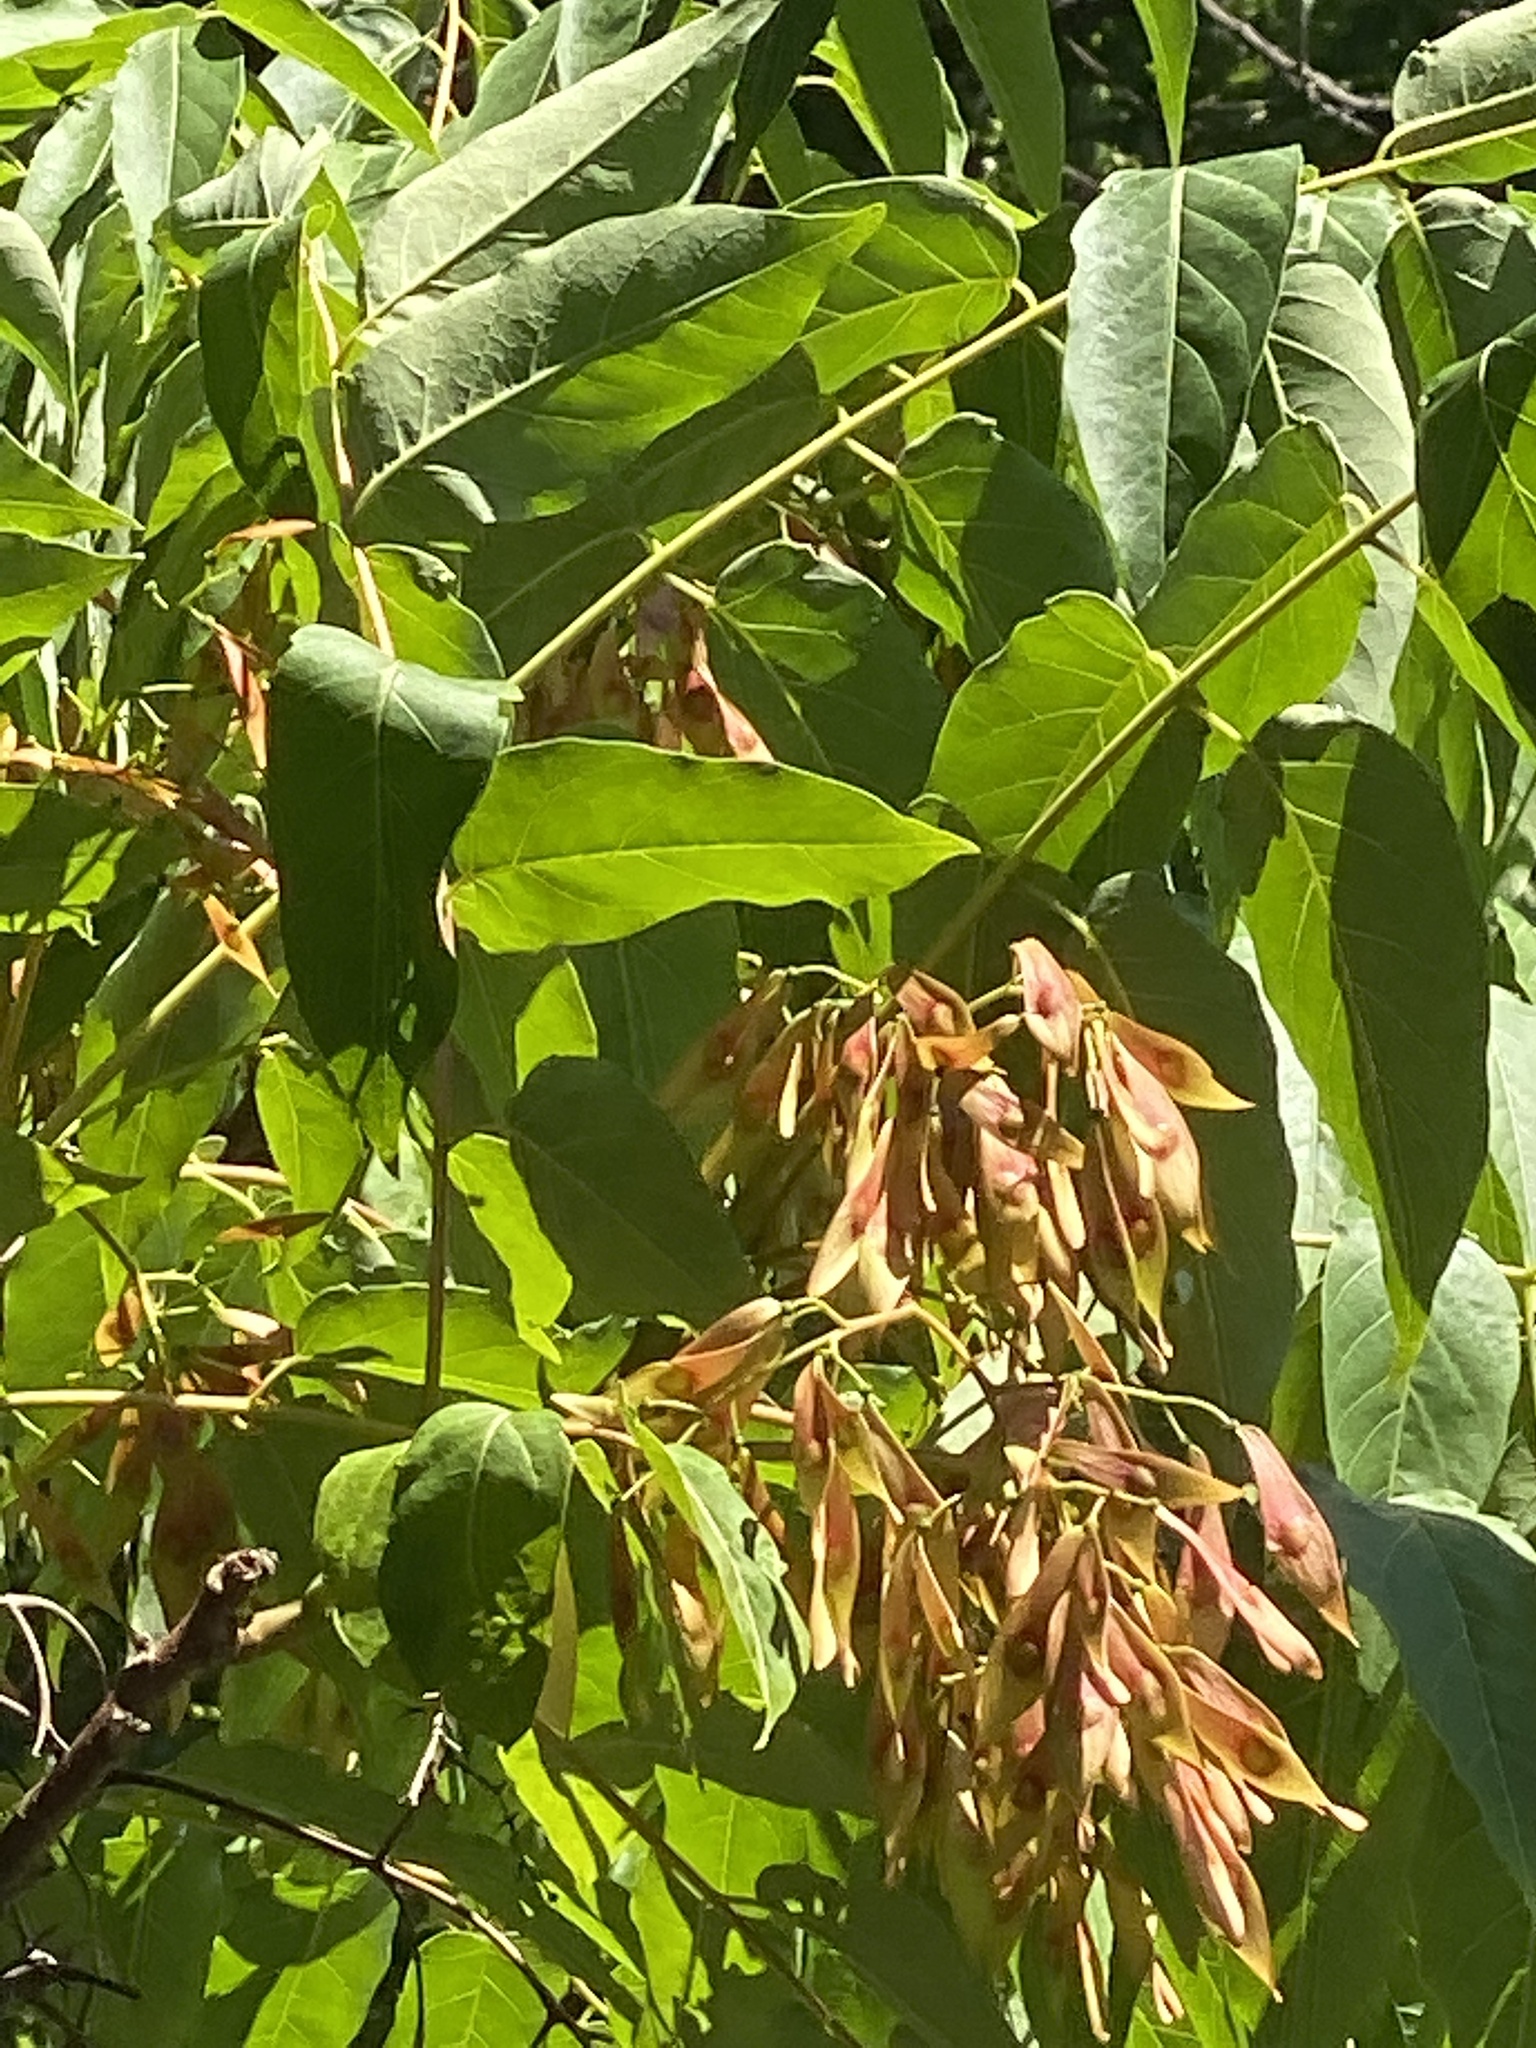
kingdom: Plantae
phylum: Tracheophyta
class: Magnoliopsida
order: Sapindales
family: Simaroubaceae
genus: Ailanthus
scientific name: Ailanthus altissima
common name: Tree-of-heaven
